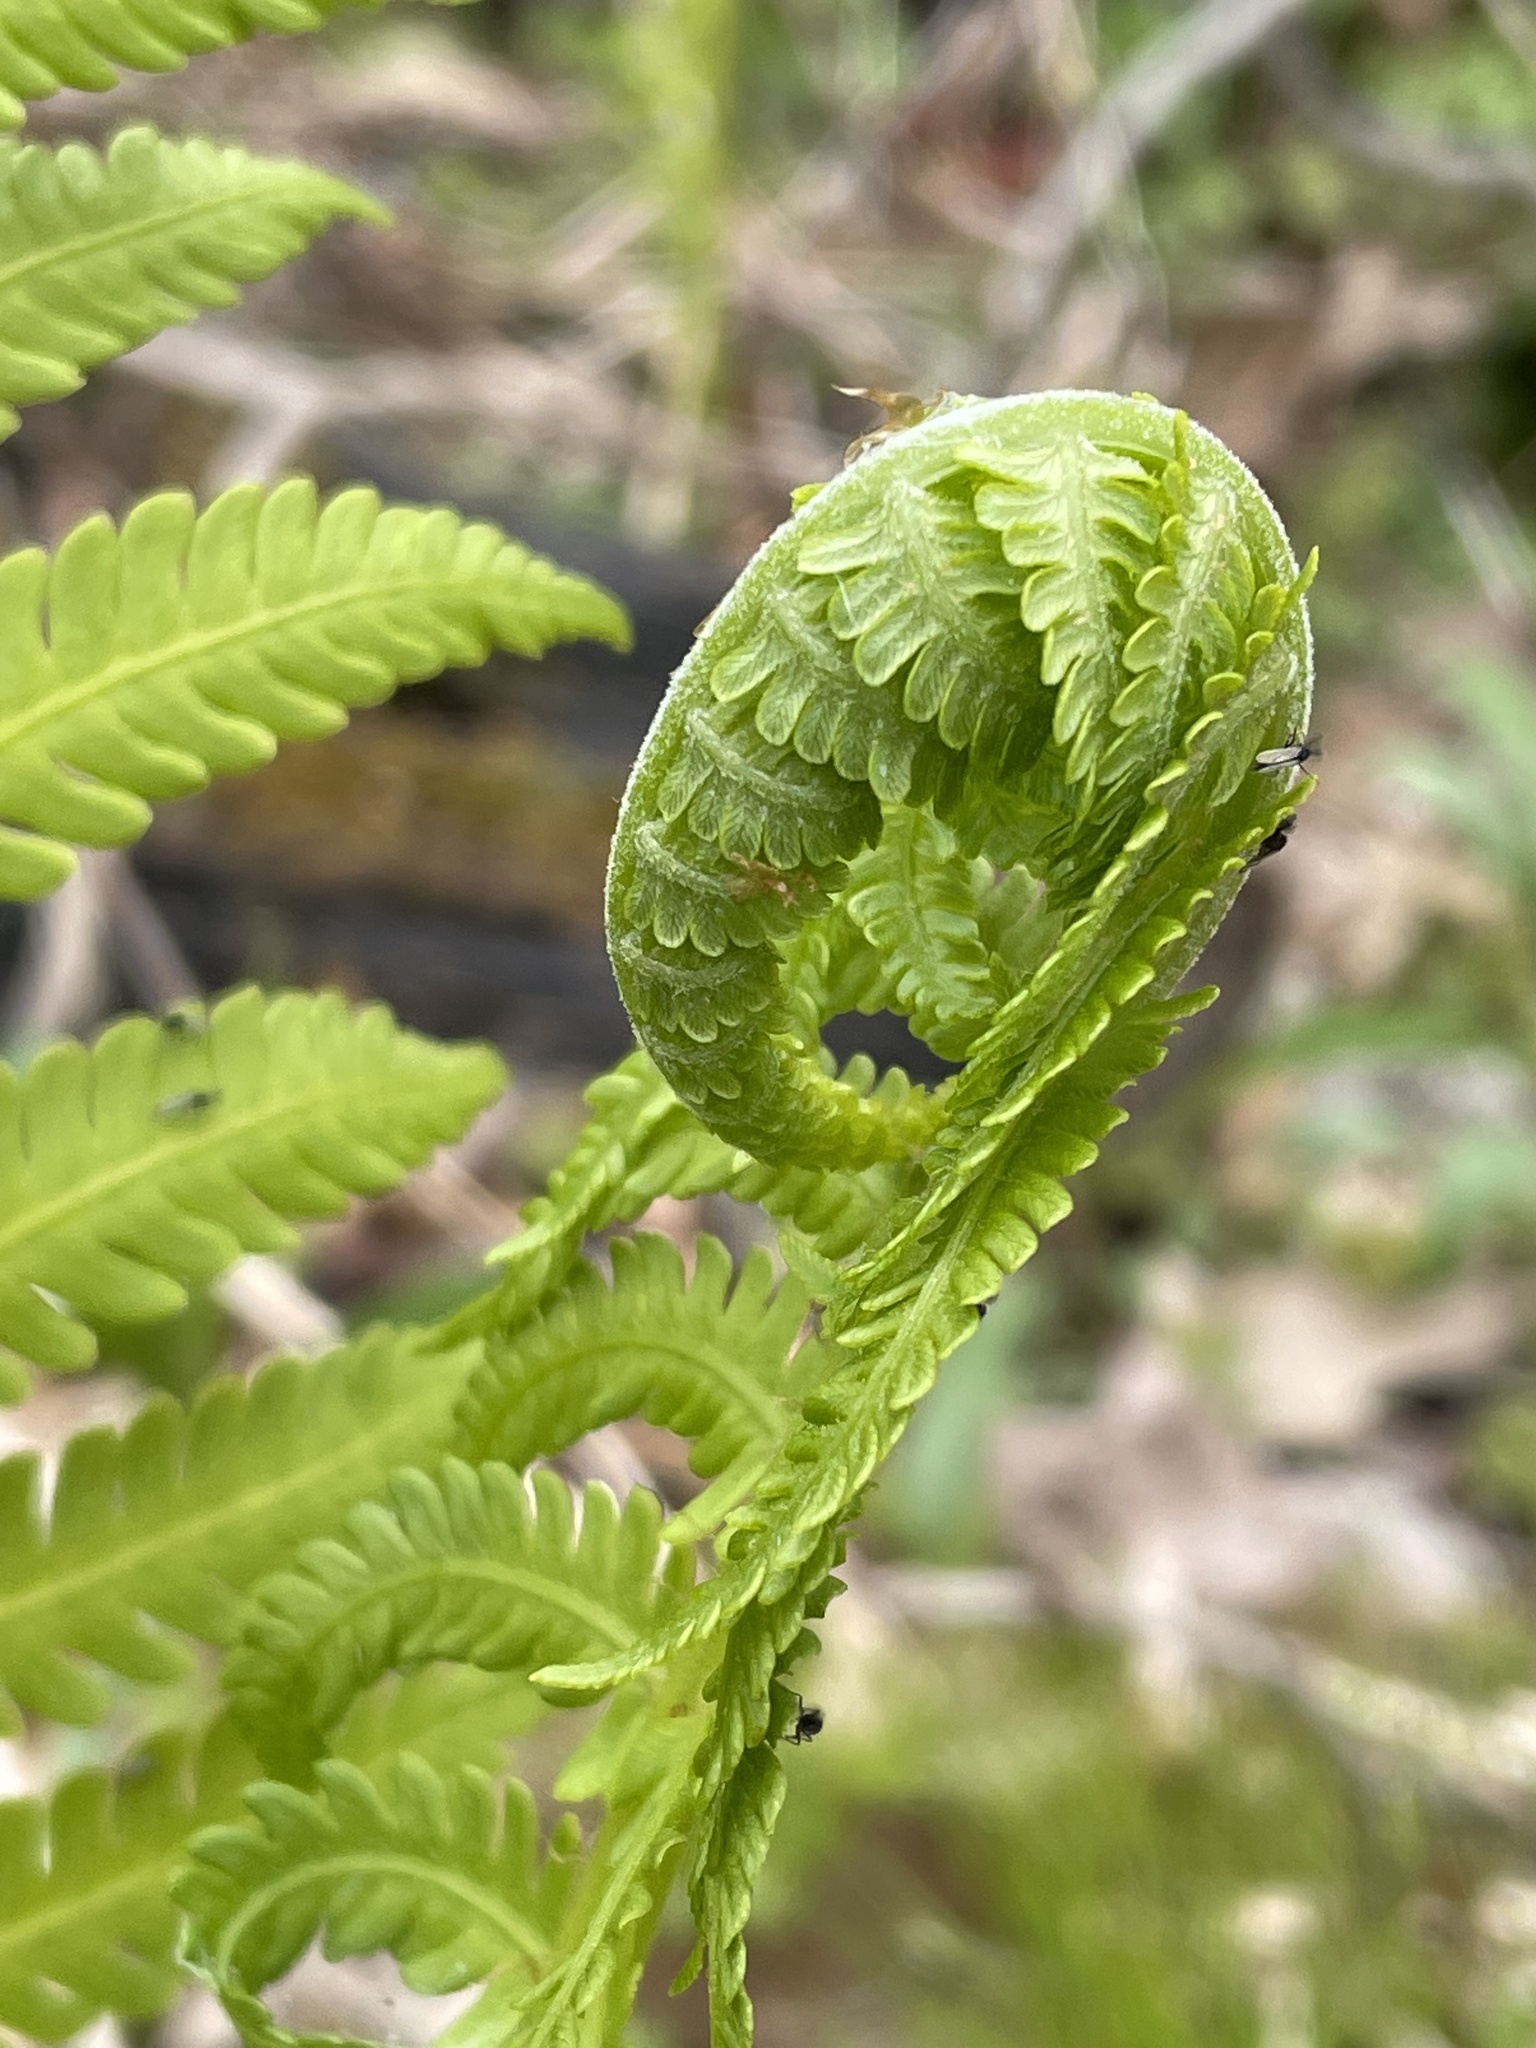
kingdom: Plantae
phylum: Tracheophyta
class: Polypodiopsida
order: Polypodiales
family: Onocleaceae
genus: Matteuccia
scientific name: Matteuccia struthiopteris
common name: Ostrich fern
